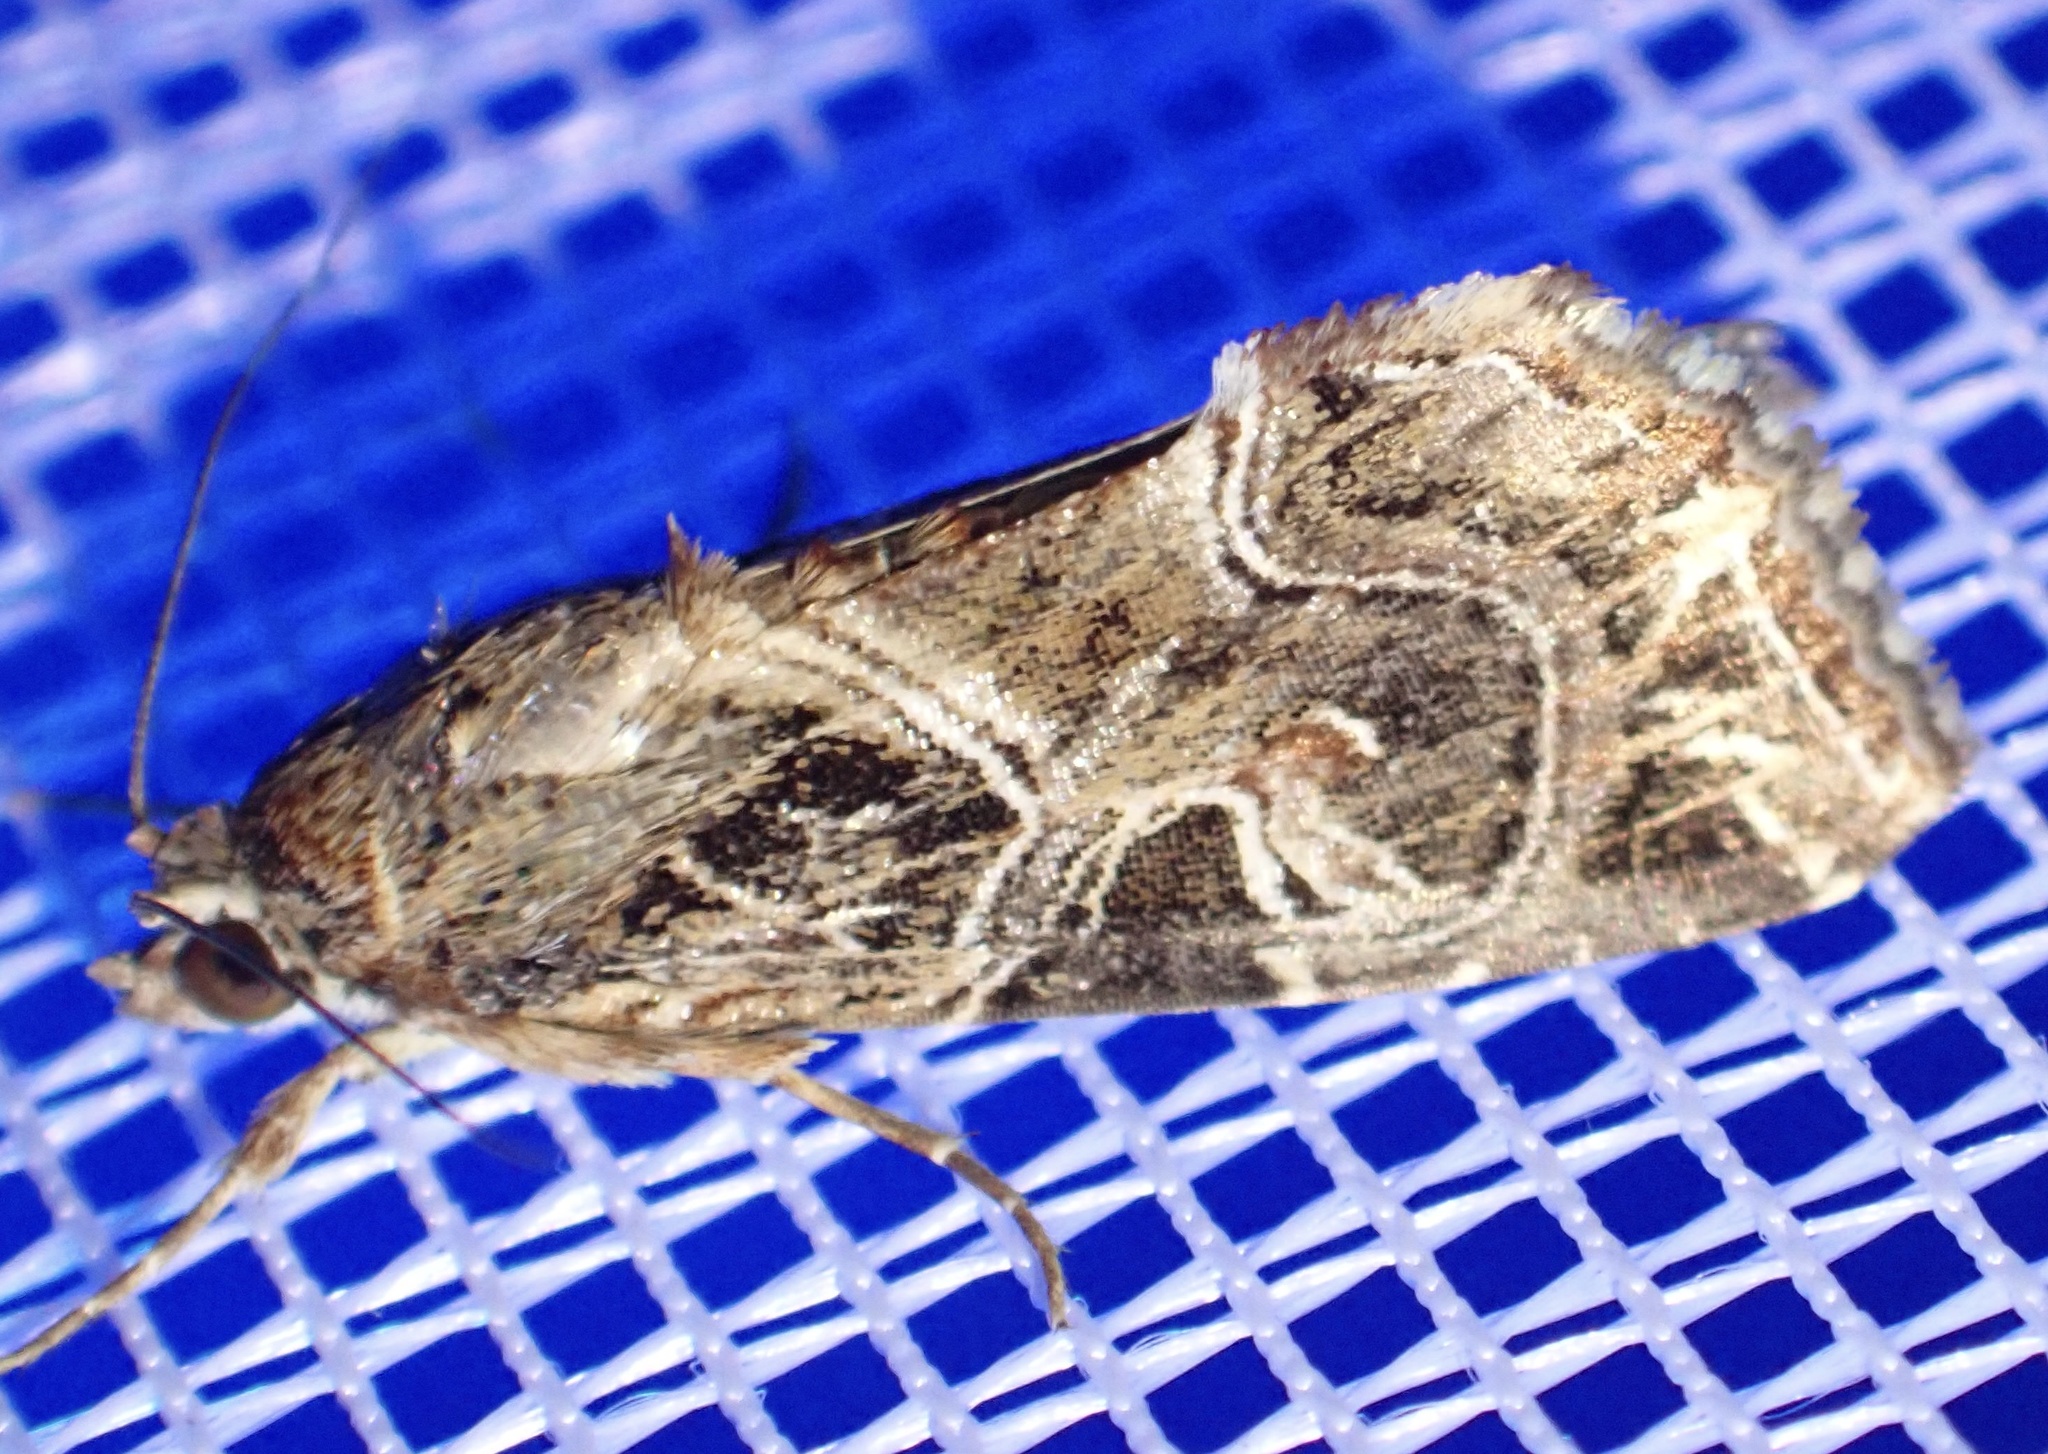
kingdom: Animalia
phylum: Arthropoda
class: Insecta
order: Lepidoptera
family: Noctuidae
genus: Callopistria
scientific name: Callopistria yerburii
